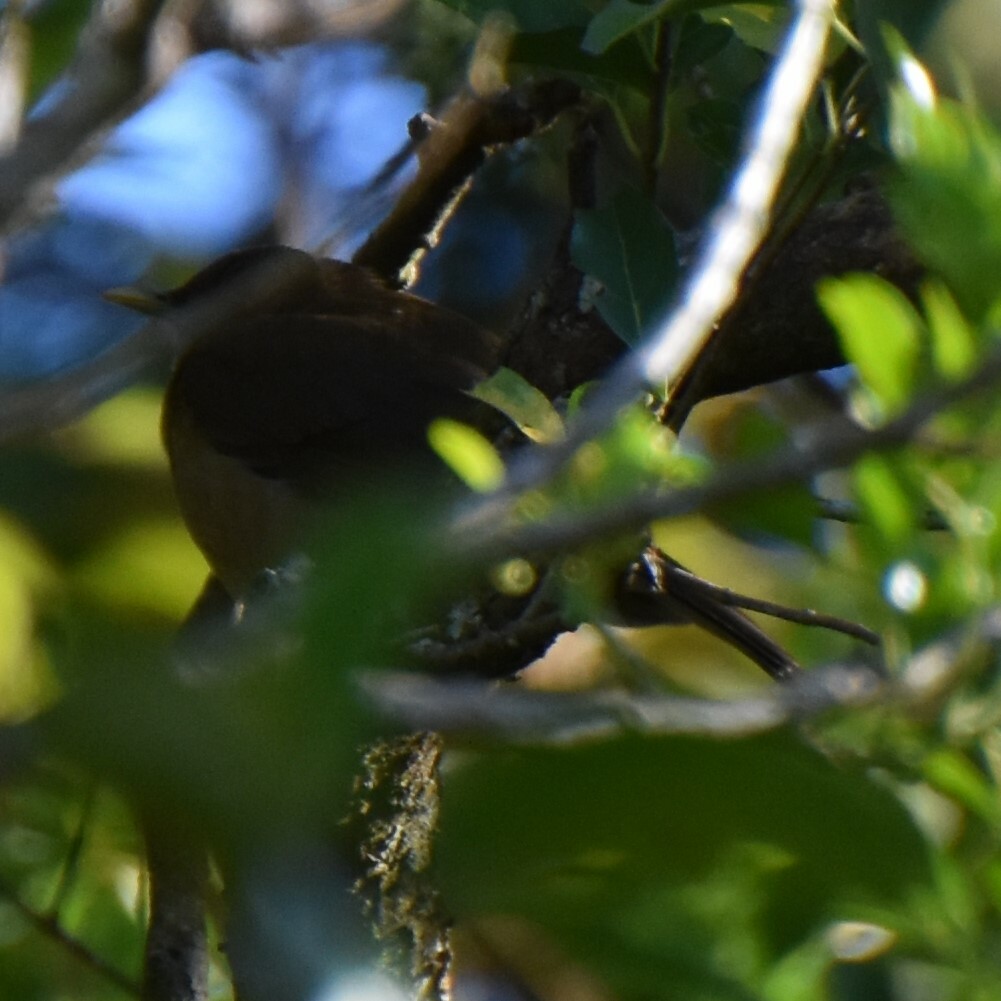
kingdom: Animalia
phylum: Chordata
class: Aves
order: Passeriformes
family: Turdidae
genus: Turdus
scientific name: Turdus grayi
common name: Clay-colored thrush
